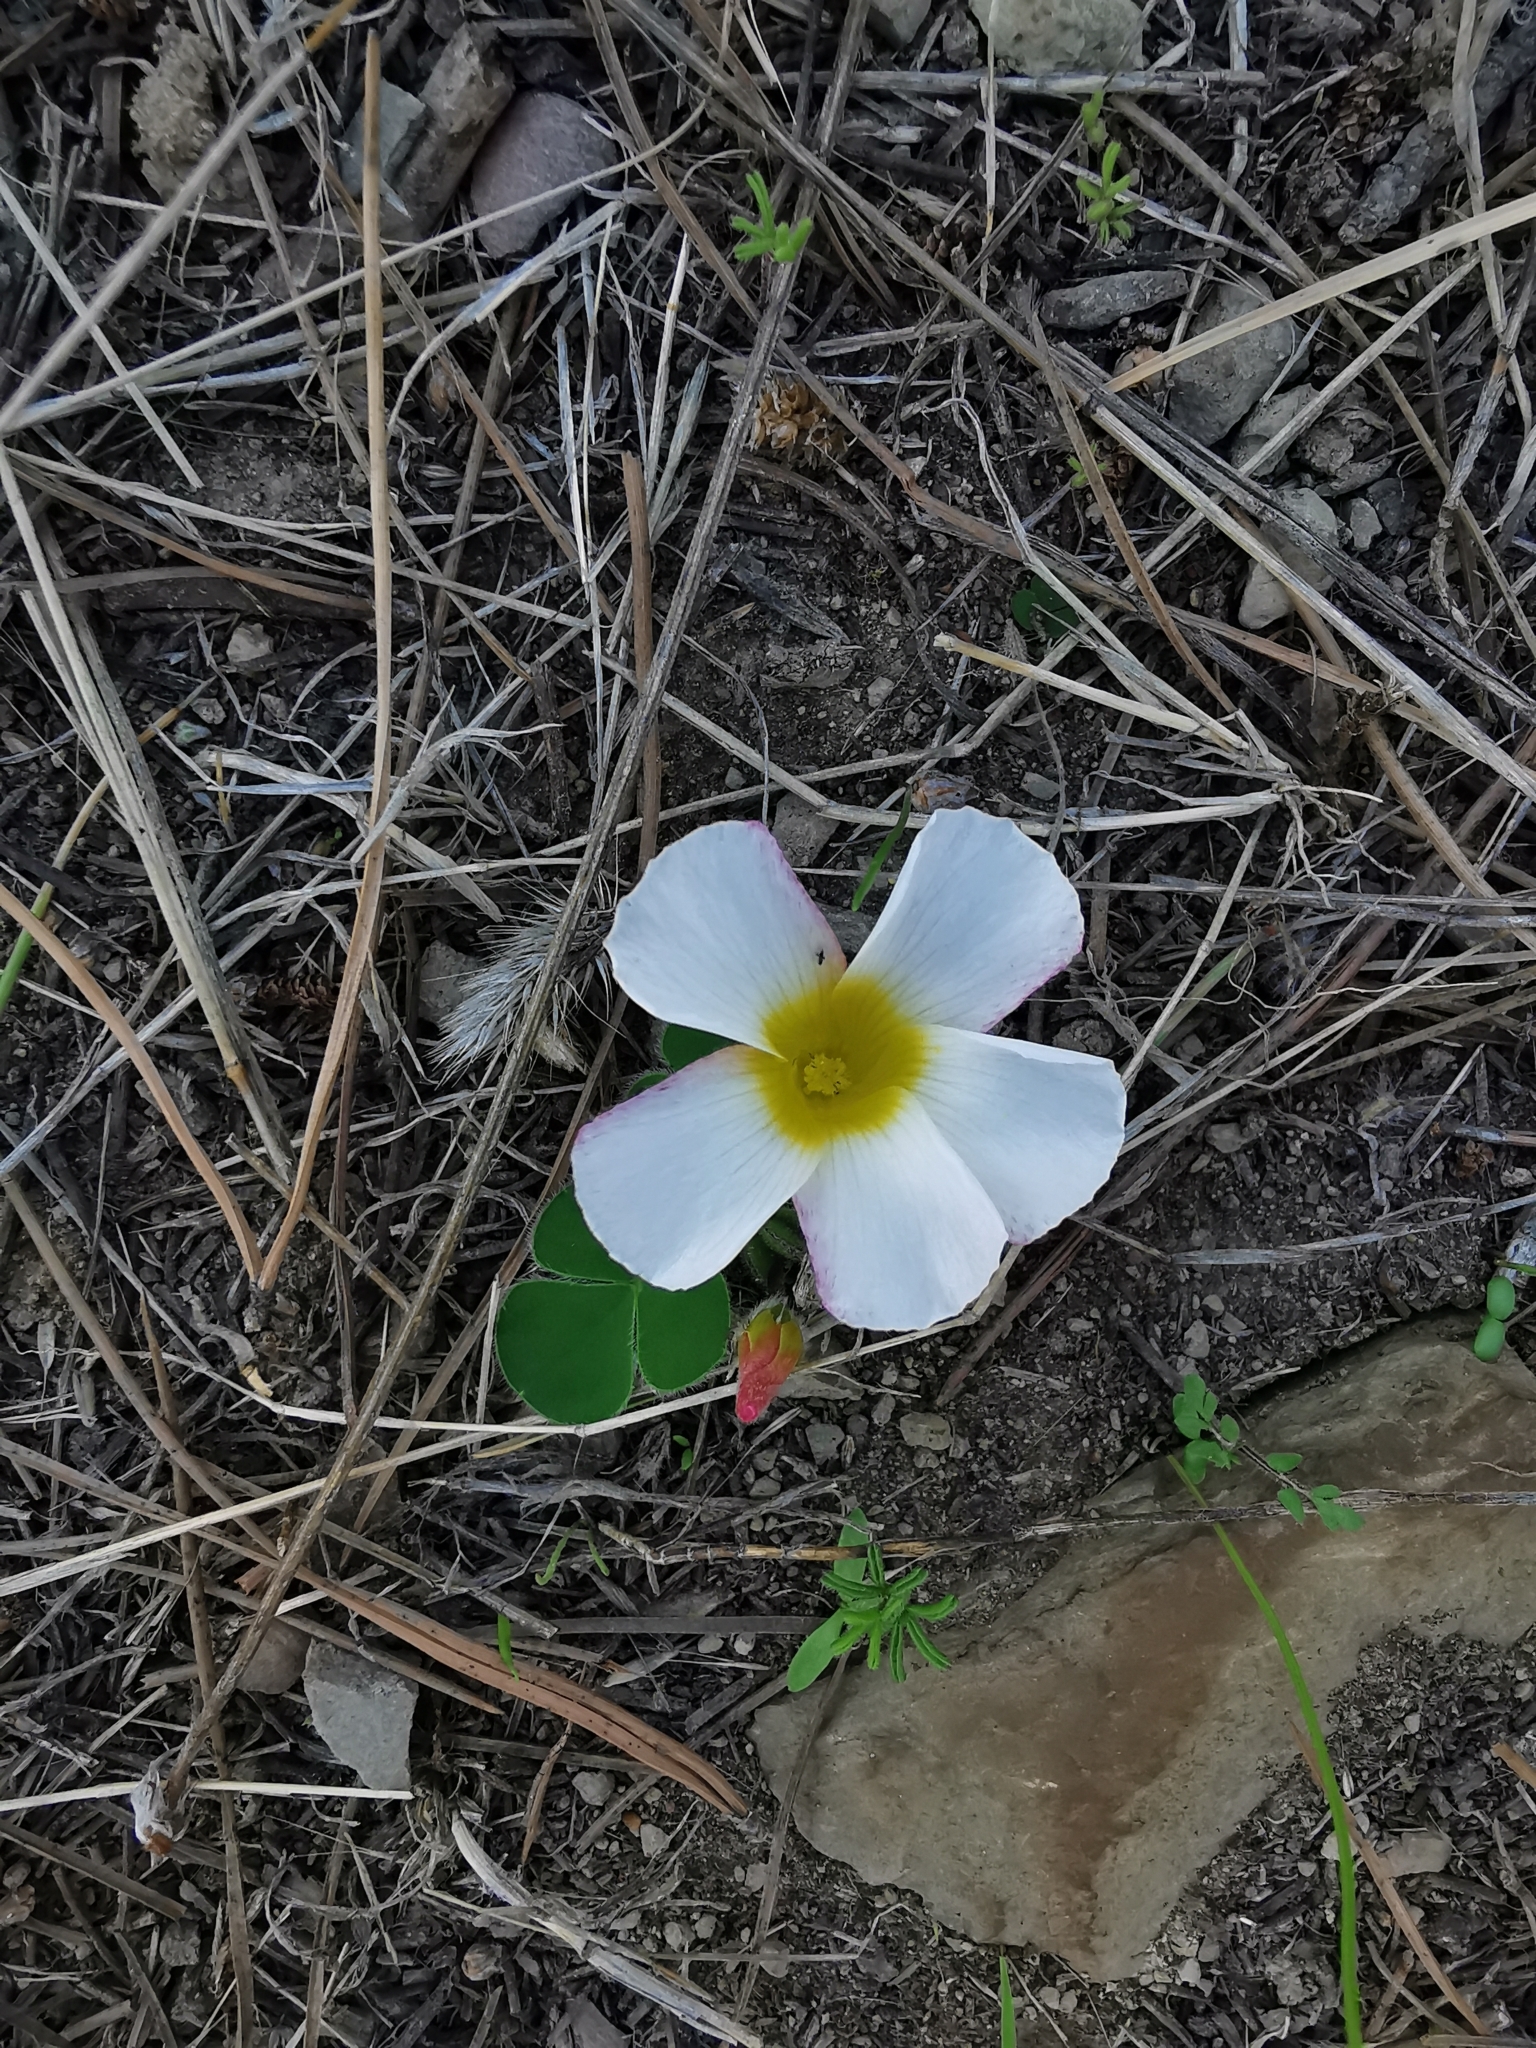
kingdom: Plantae
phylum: Tracheophyta
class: Magnoliopsida
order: Oxalidales
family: Oxalidaceae
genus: Oxalis
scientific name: Oxalis purpurea
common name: Purple woodsorrel
